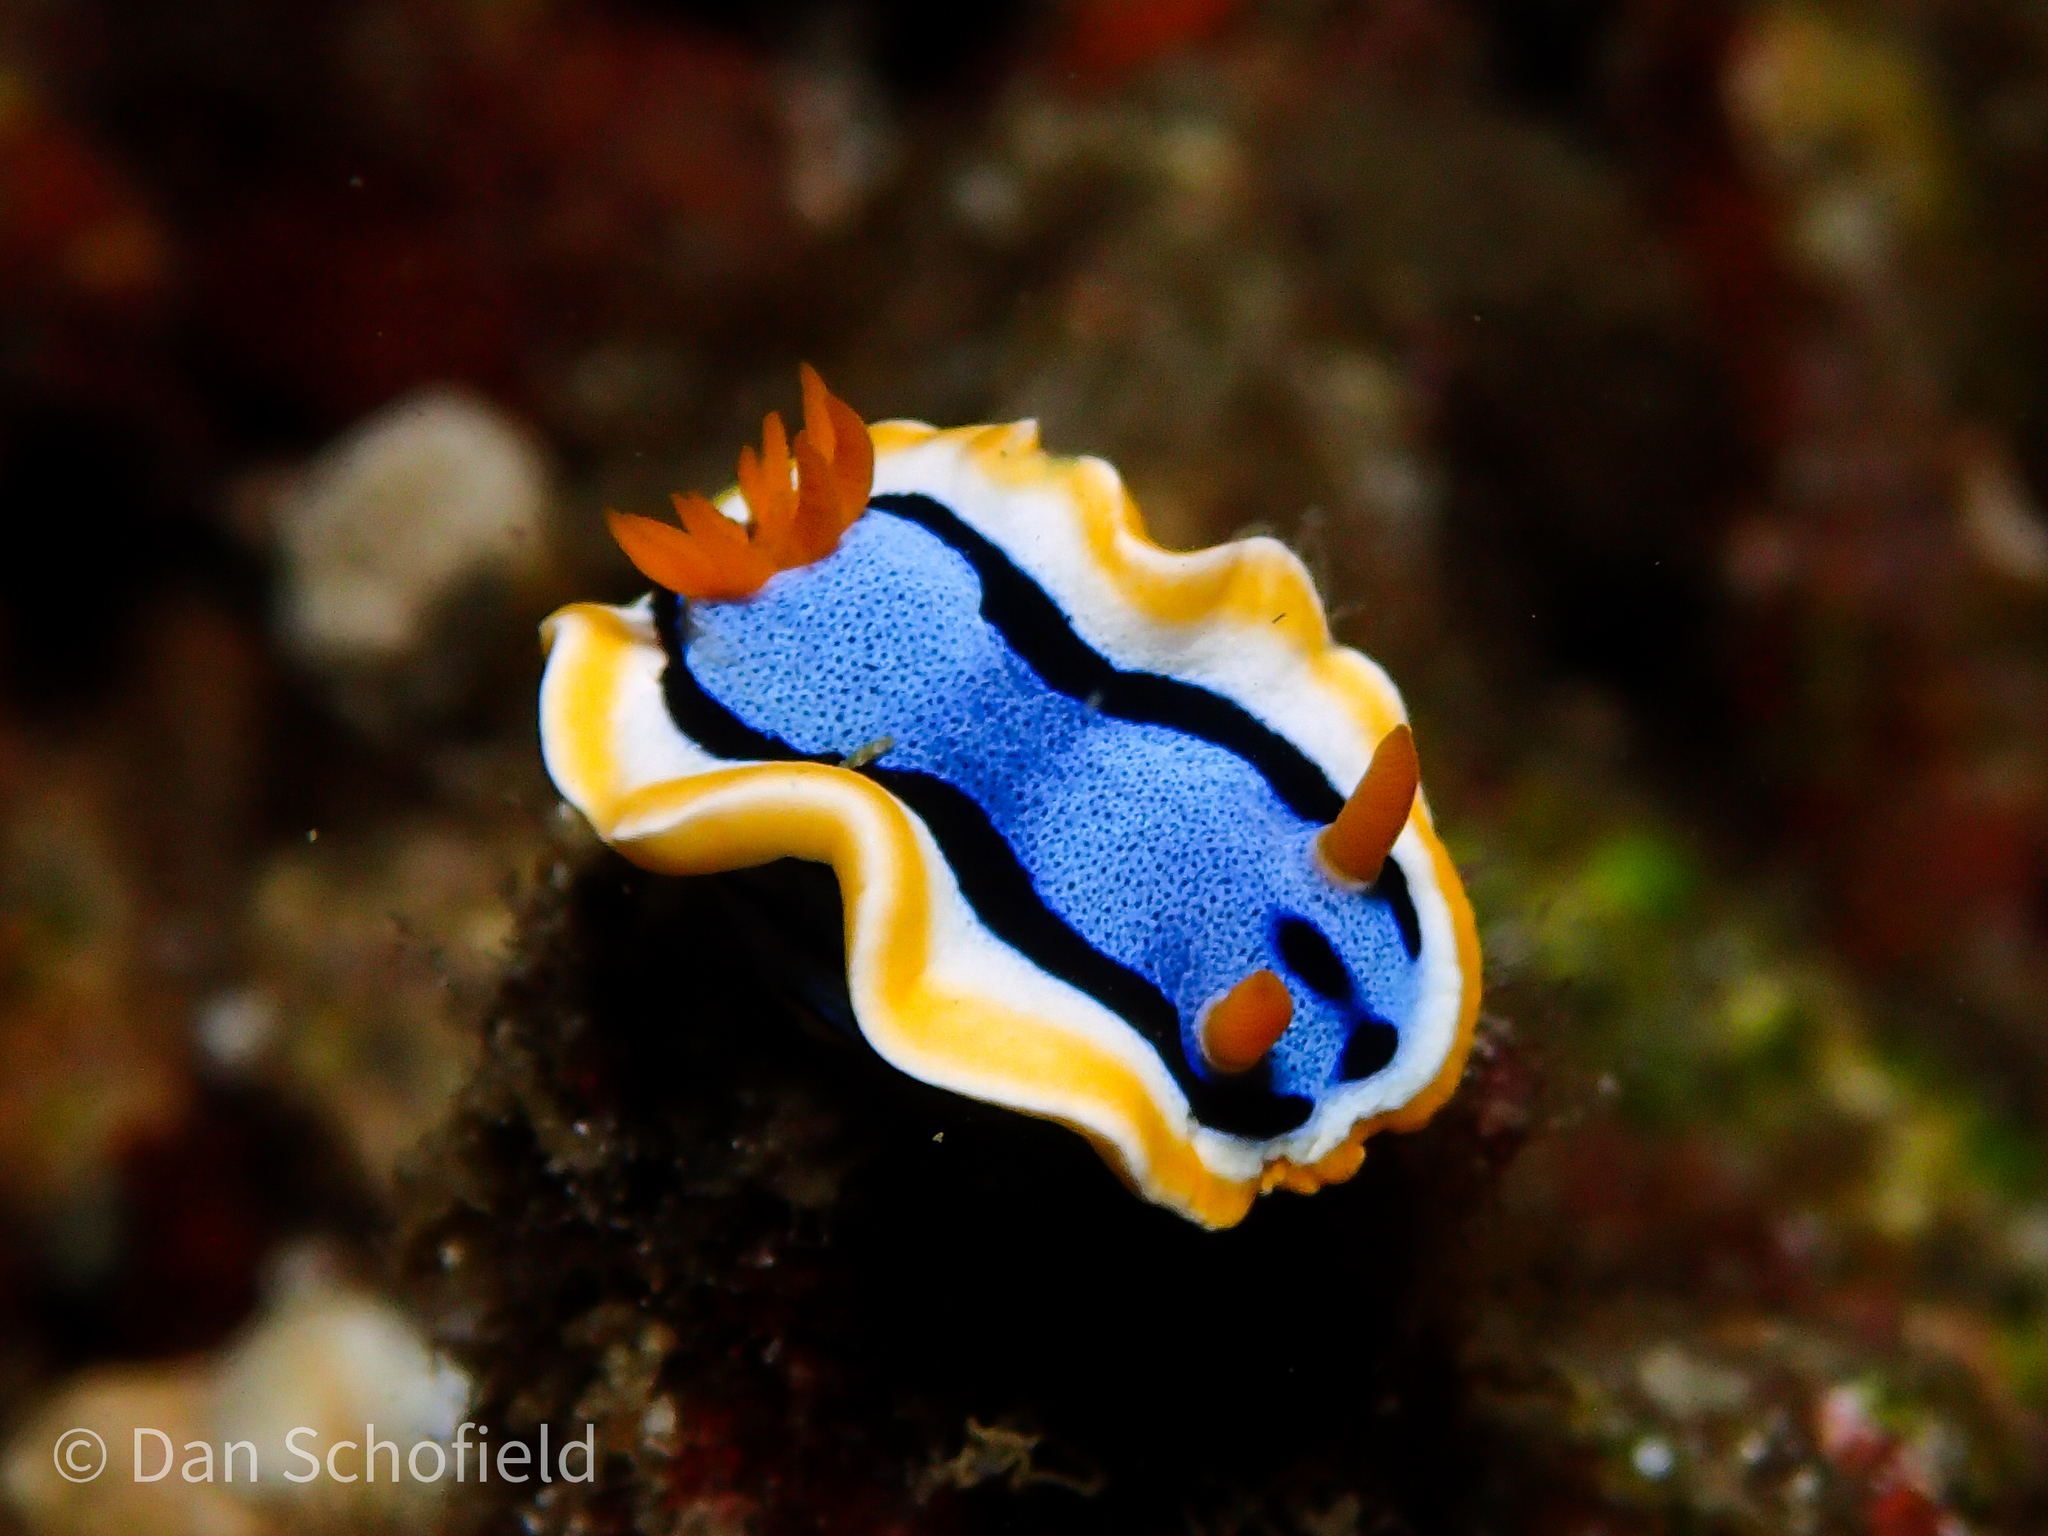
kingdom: Animalia
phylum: Mollusca
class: Gastropoda
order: Nudibranchia
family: Chromodorididae
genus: Chromodoris
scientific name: Chromodoris annae
